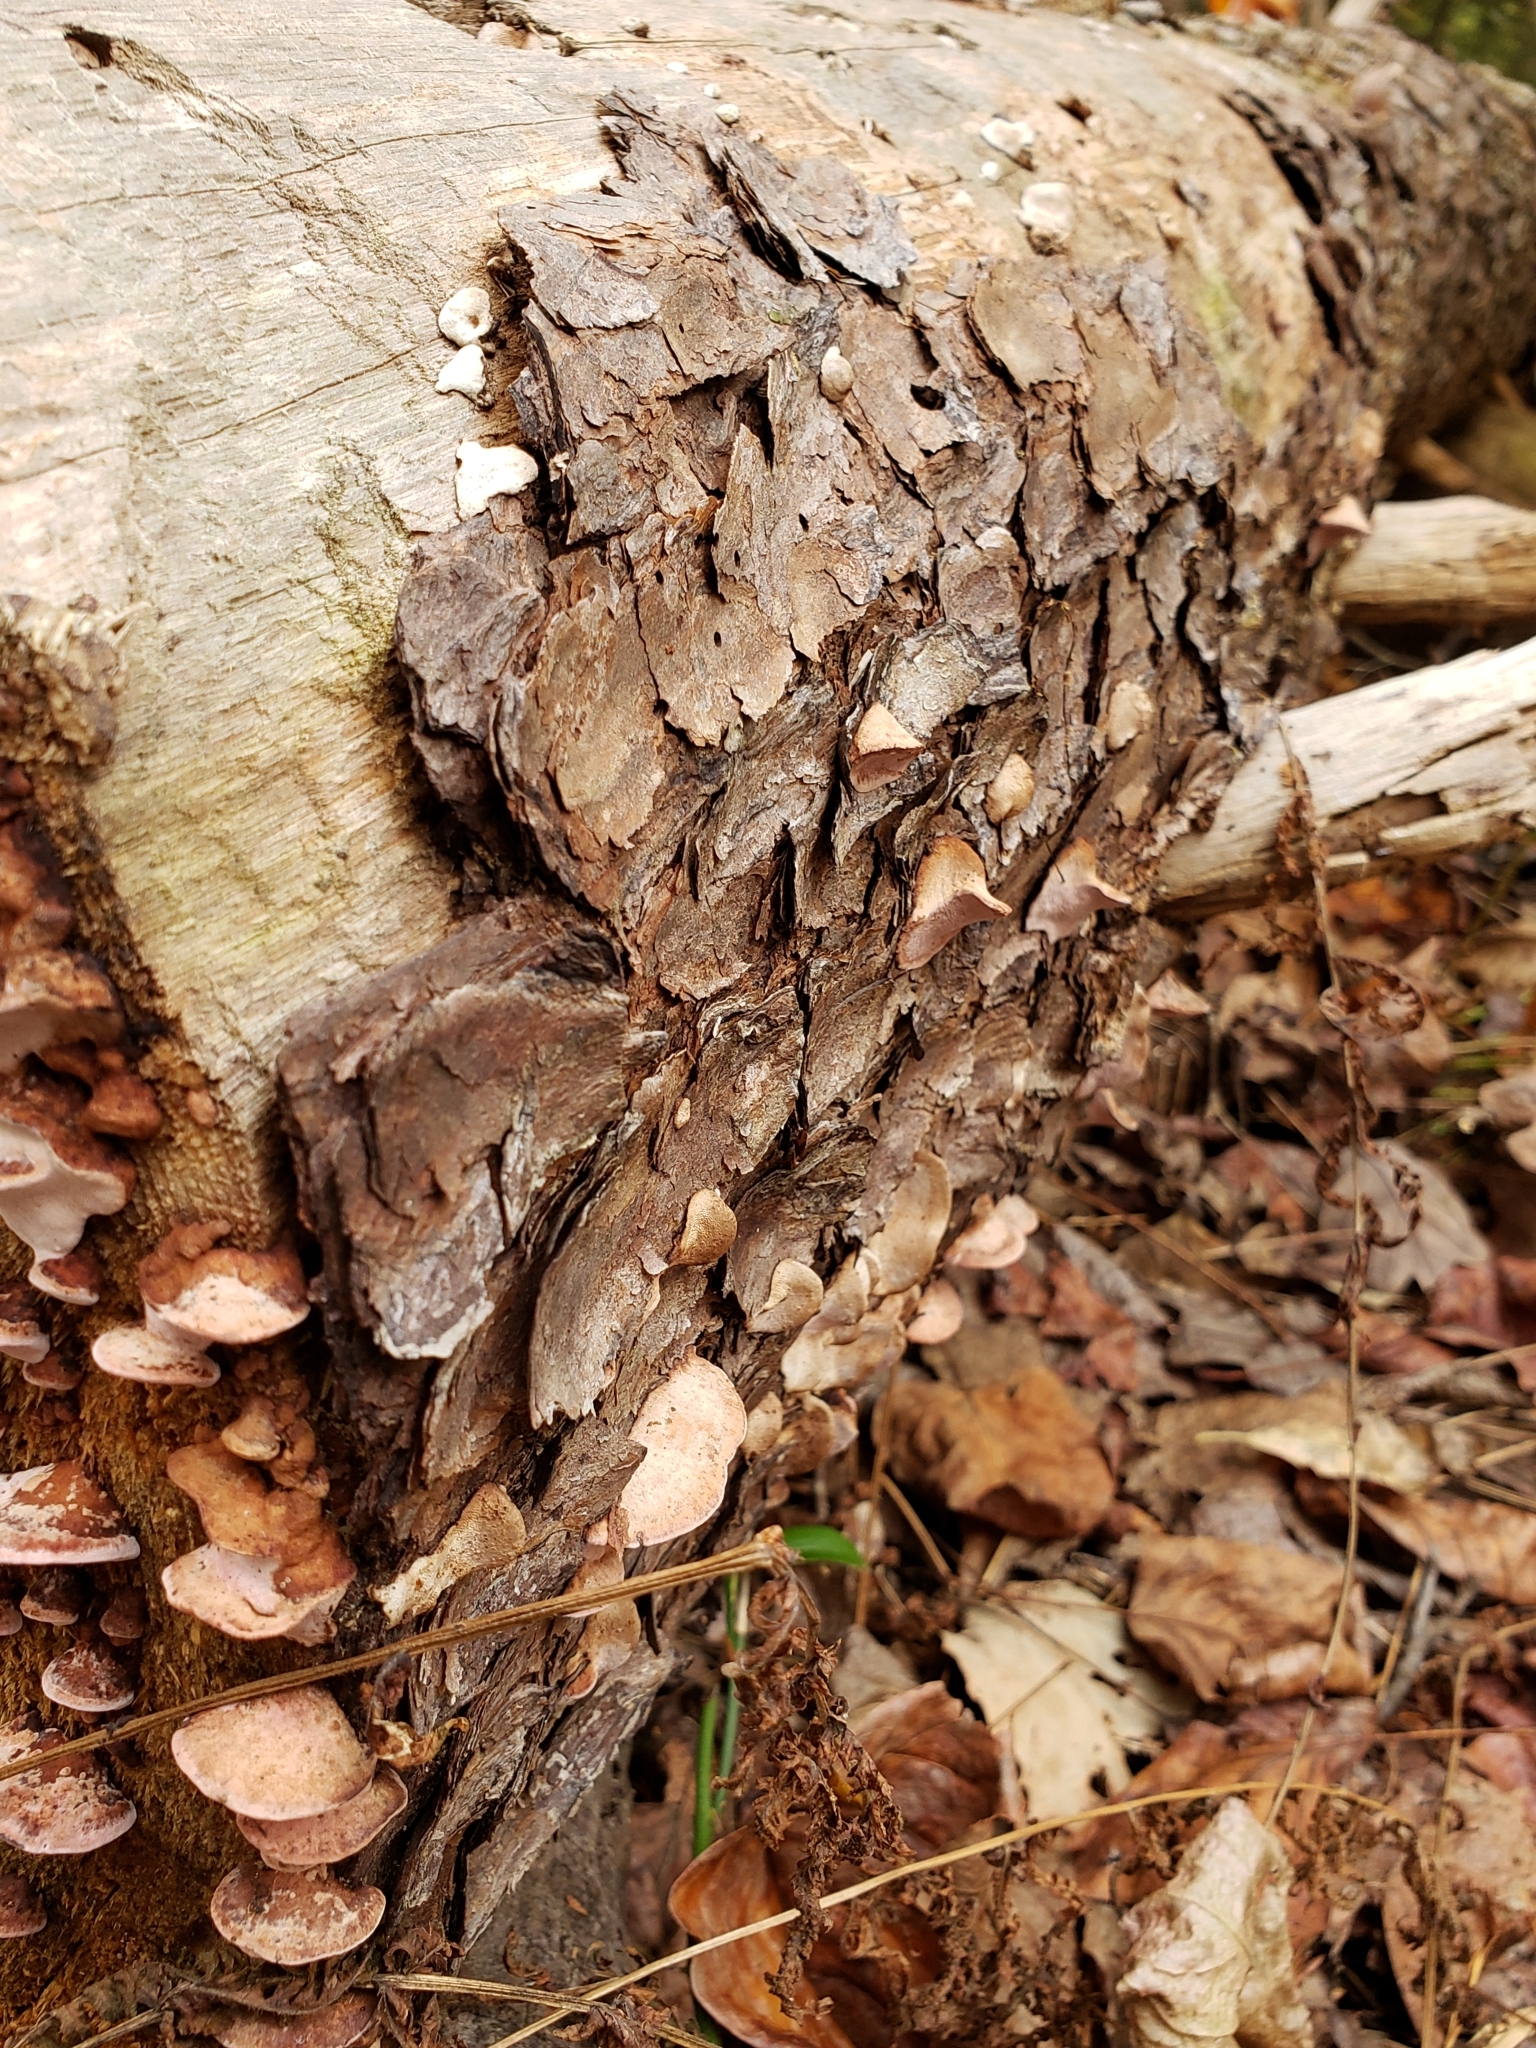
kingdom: Fungi
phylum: Basidiomycota
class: Agaricomycetes
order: Polyporales
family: Fomitopsidaceae
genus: Rhodofomes
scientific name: Rhodofomes cajanderi
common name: Rosy conk
